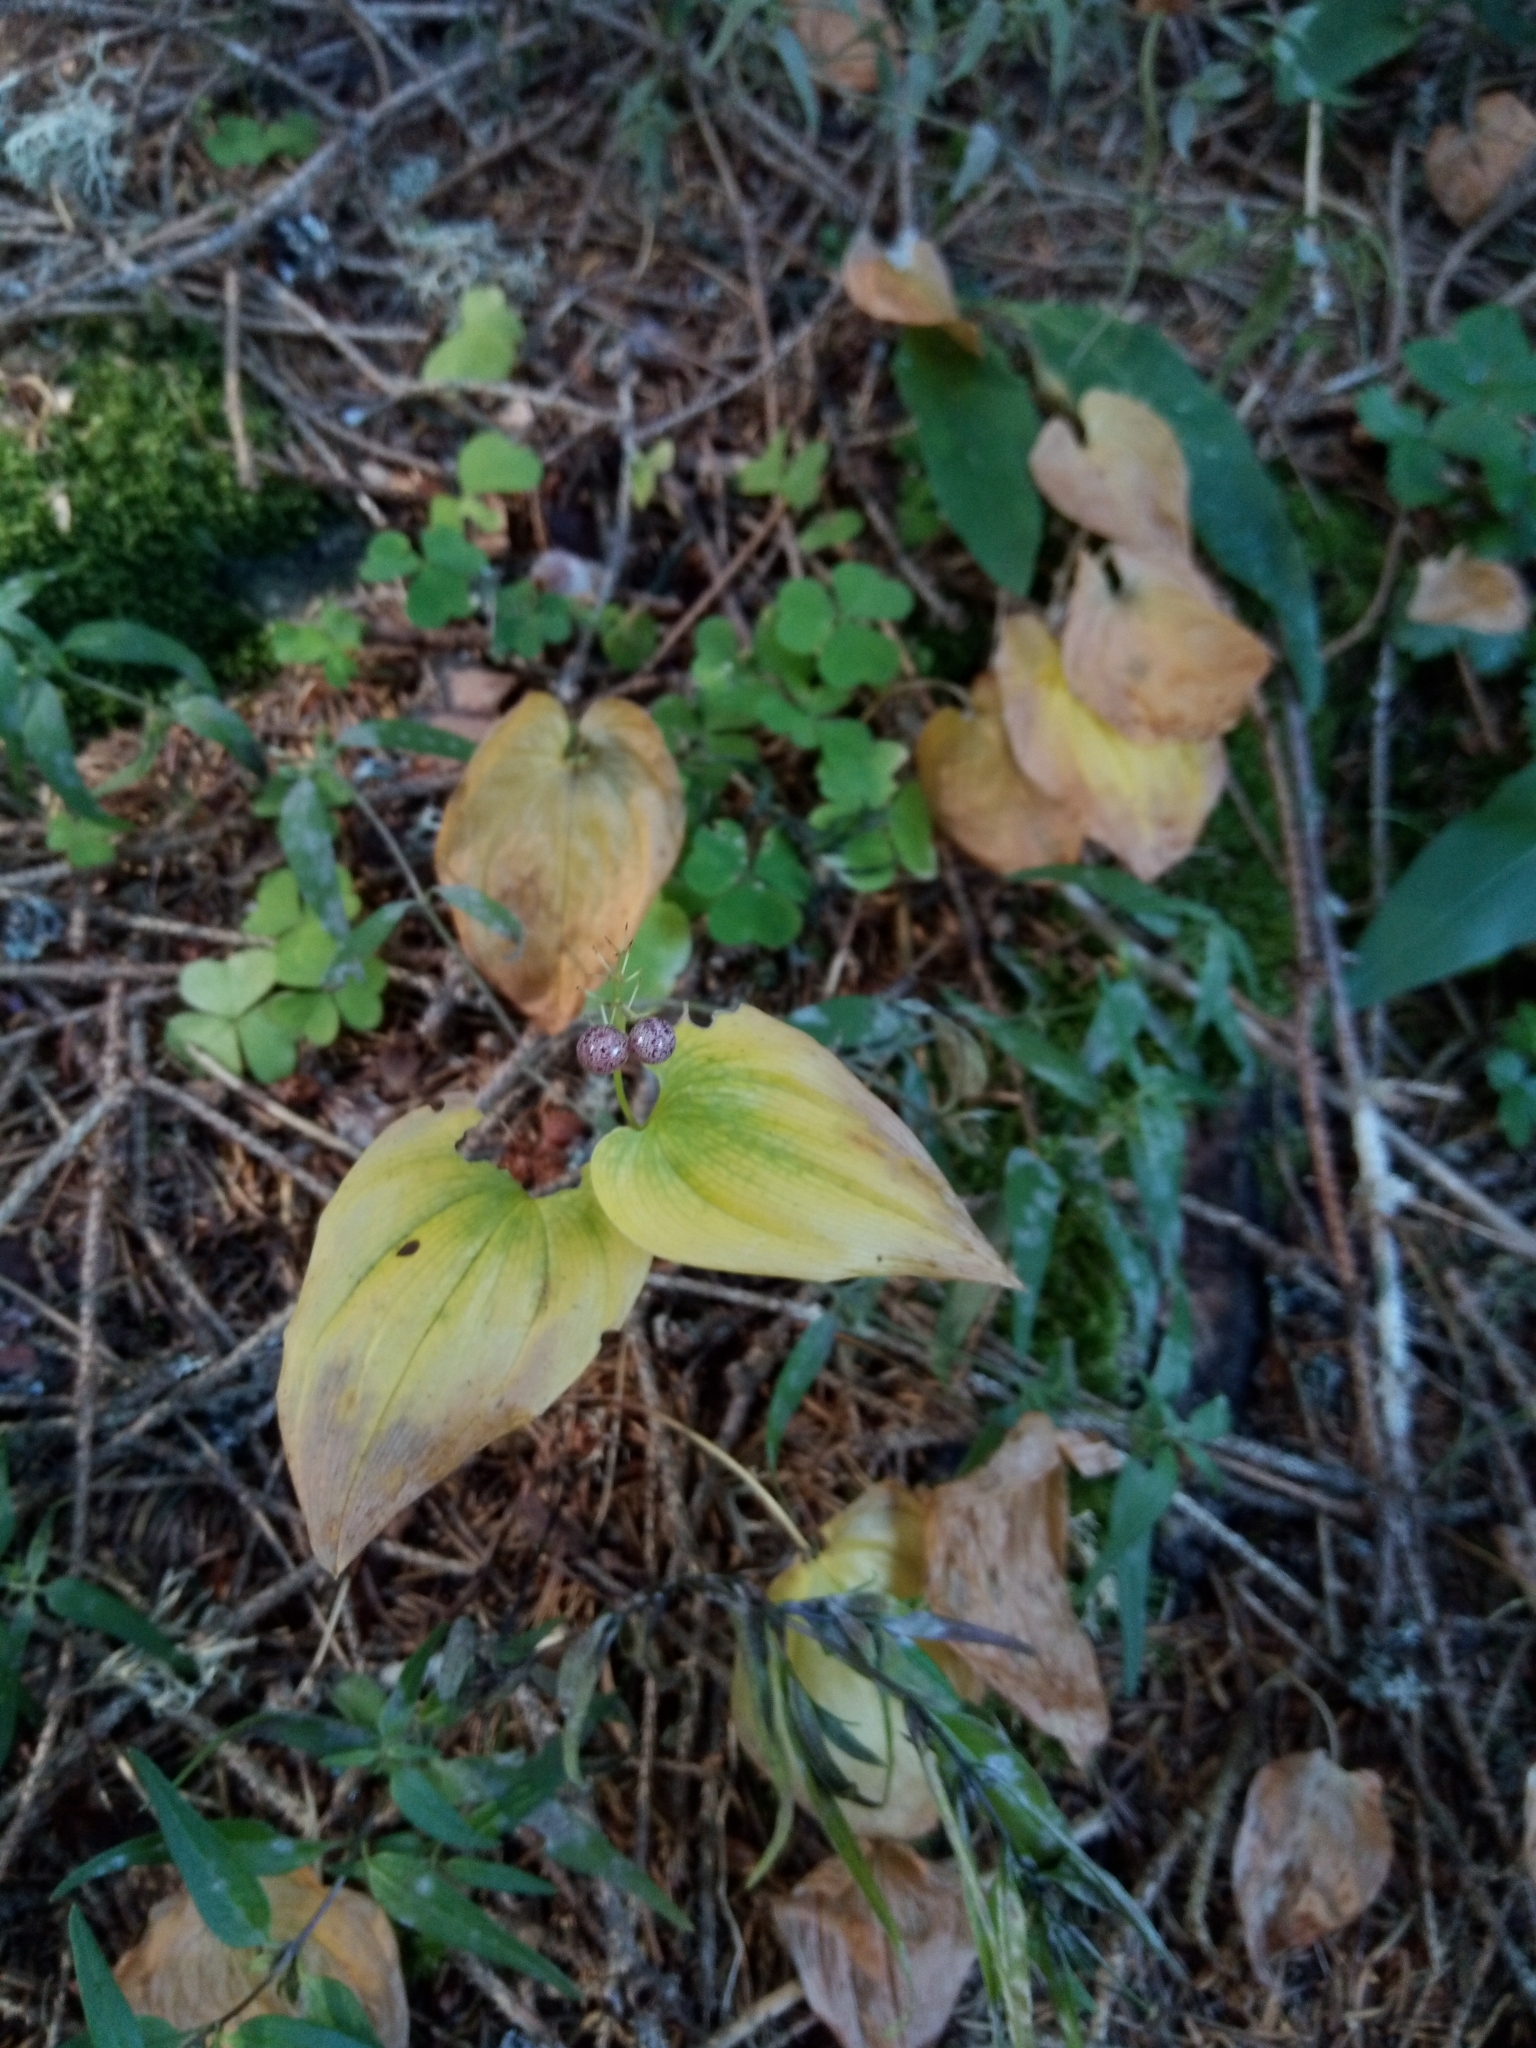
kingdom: Plantae
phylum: Tracheophyta
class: Liliopsida
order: Asparagales
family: Asparagaceae
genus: Maianthemum
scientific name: Maianthemum bifolium
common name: May lily
